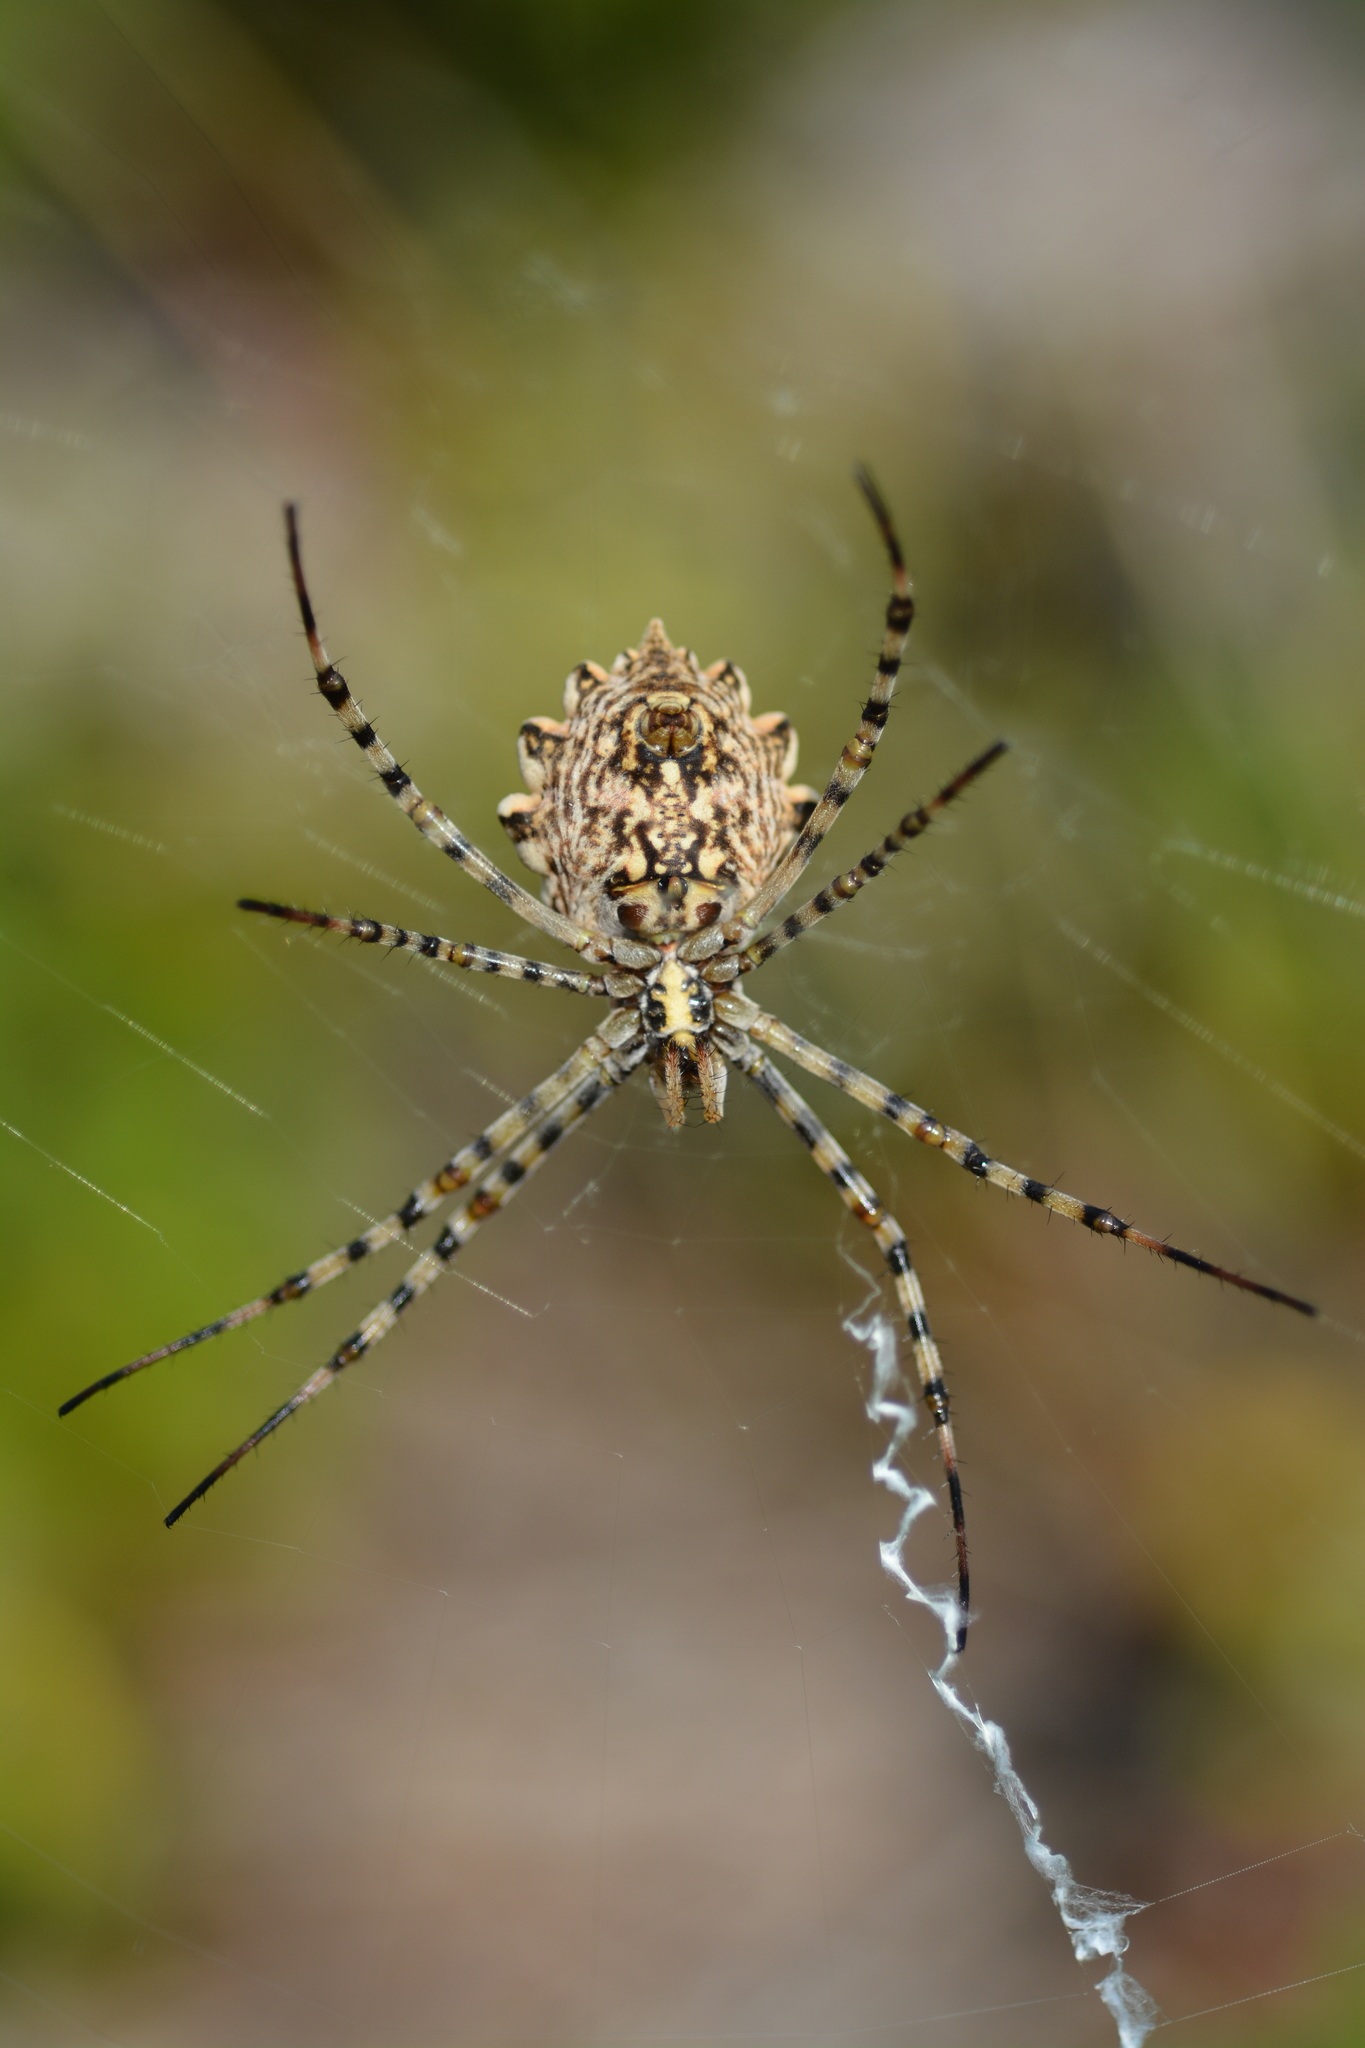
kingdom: Animalia
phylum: Arthropoda
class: Arachnida
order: Araneae
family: Araneidae
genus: Argiope
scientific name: Argiope lobata
